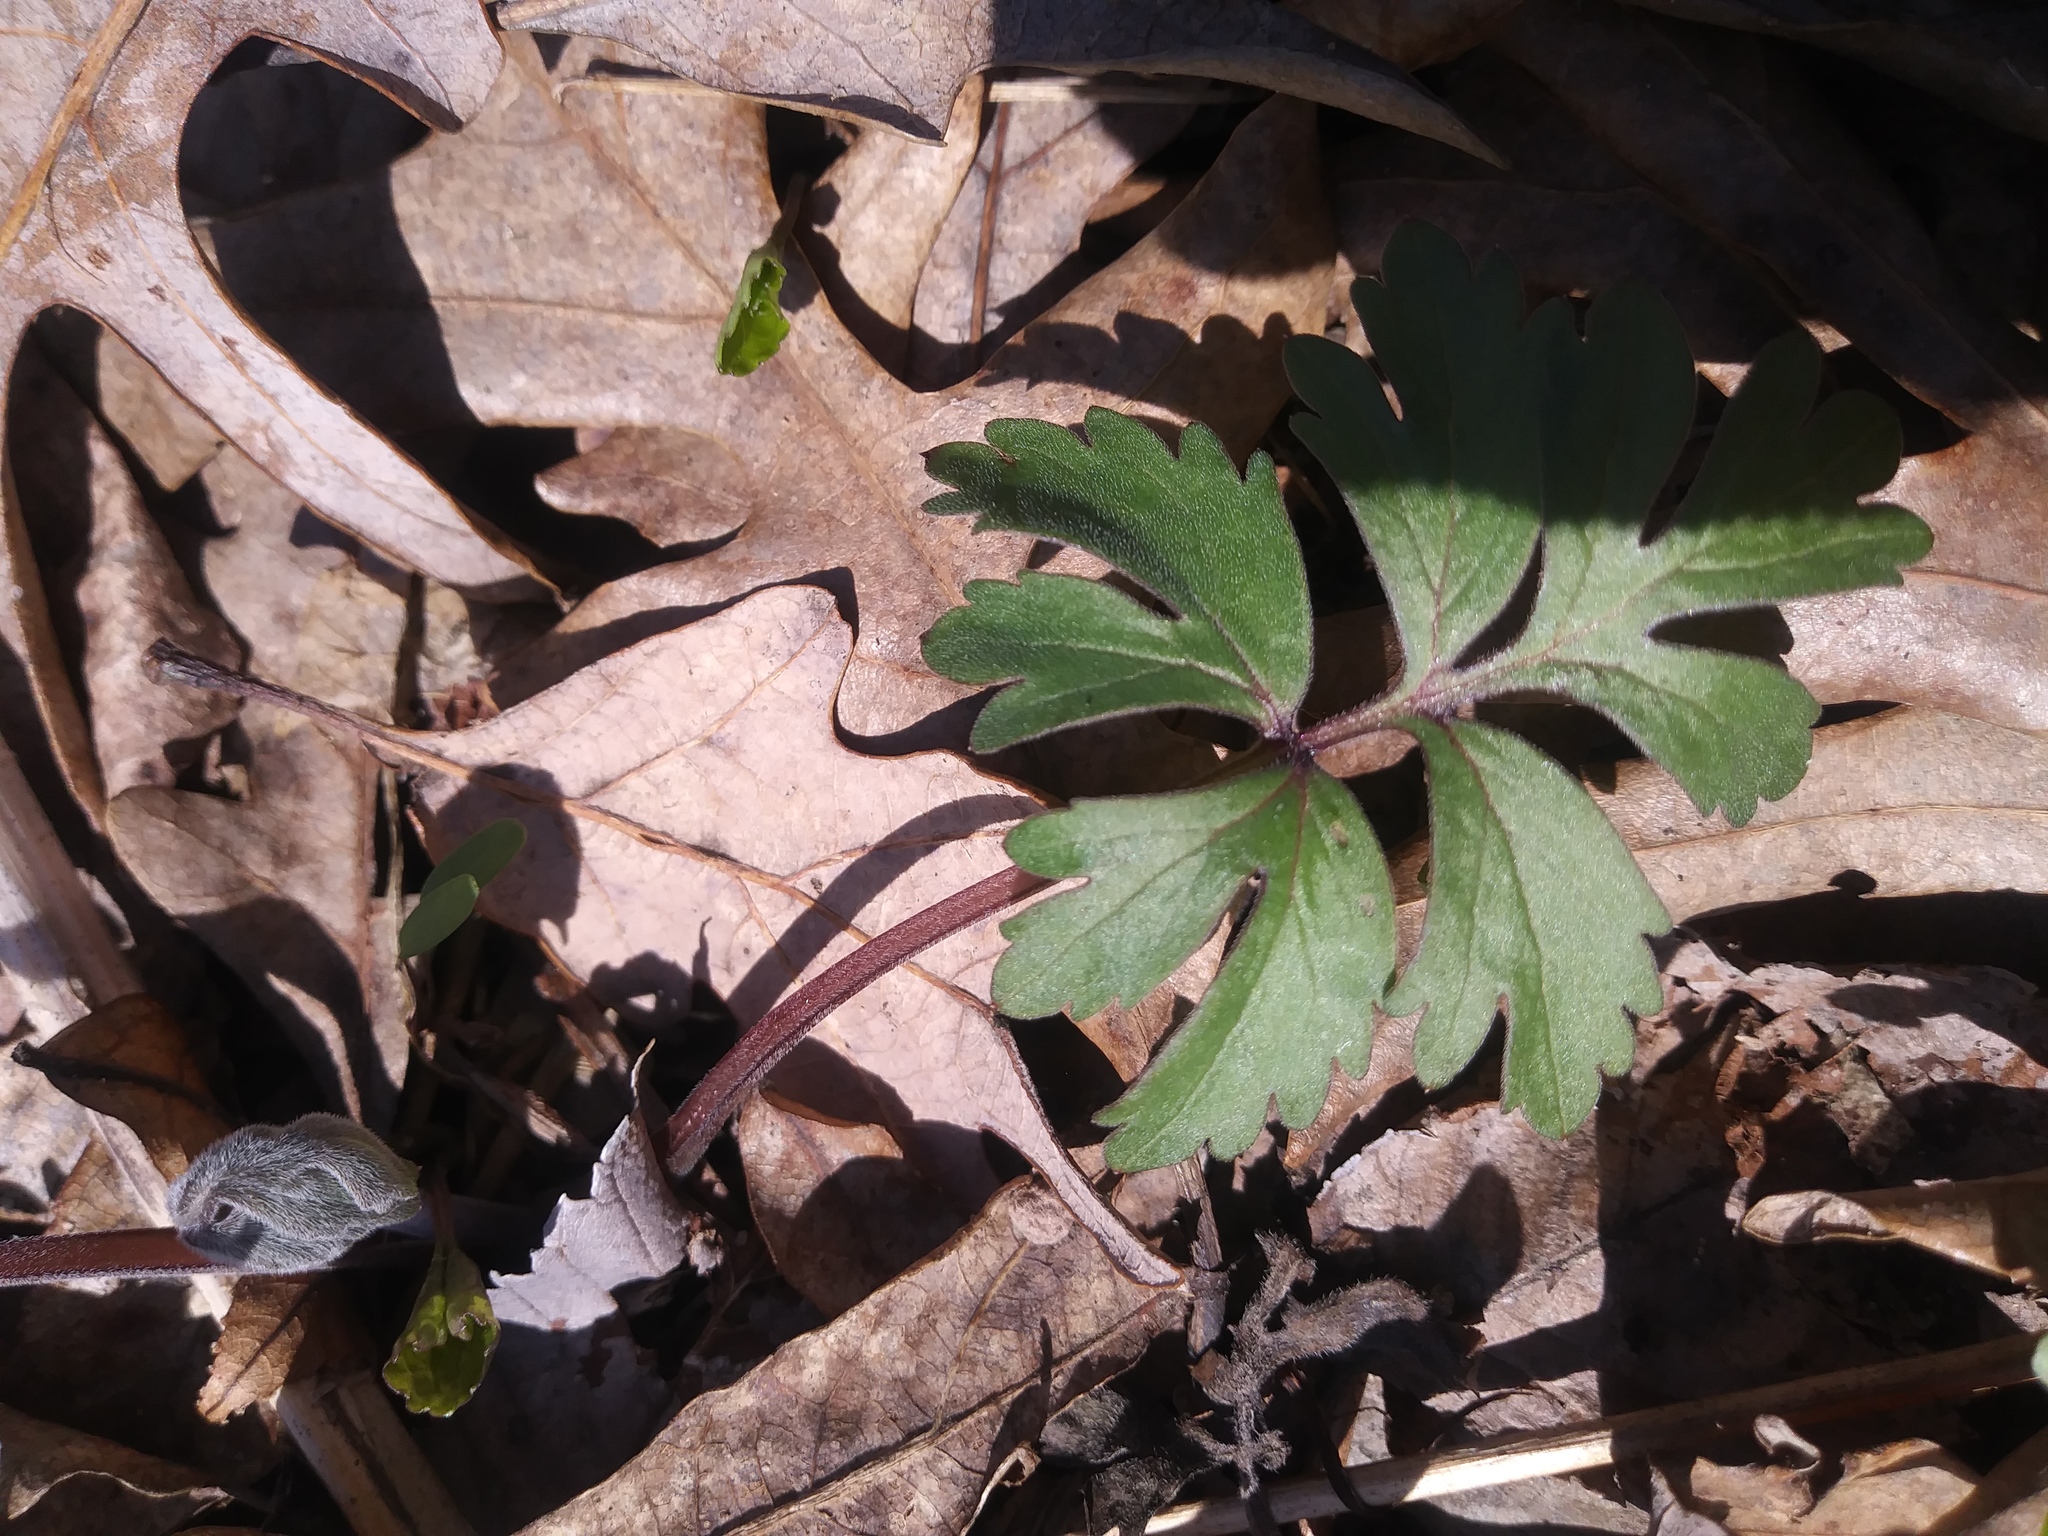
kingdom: Plantae
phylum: Tracheophyta
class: Magnoliopsida
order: Boraginales
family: Hydrophyllaceae
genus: Hydrophyllum
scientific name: Hydrophyllum virginianum
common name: Virginia waterleaf
